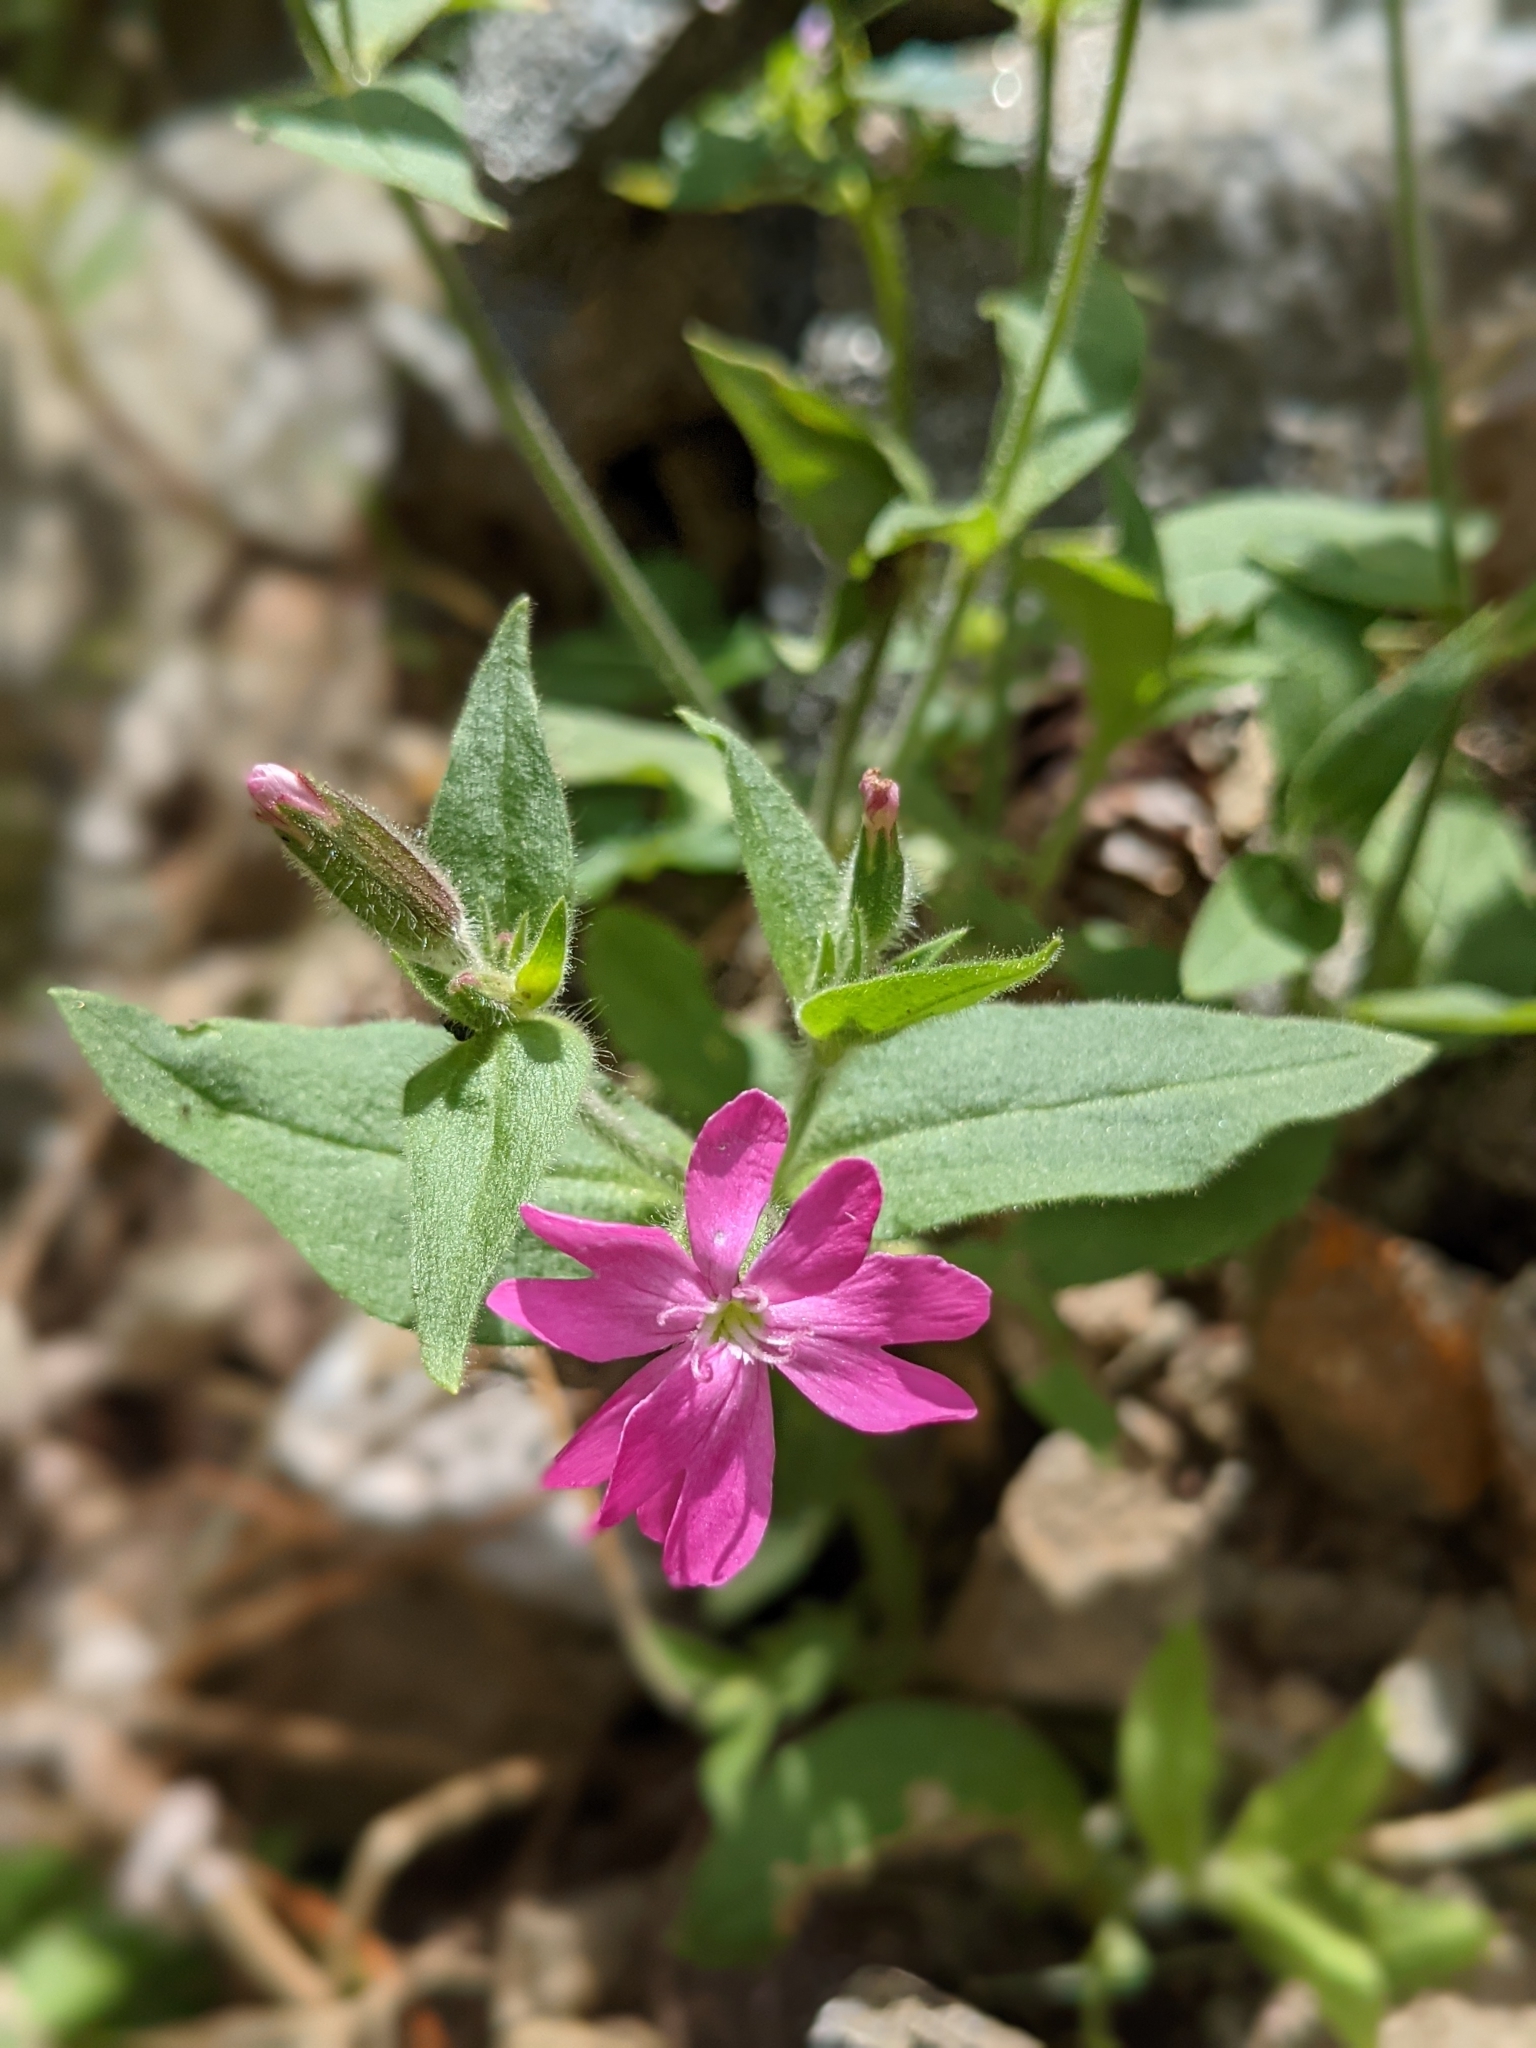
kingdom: Plantae
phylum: Tracheophyta
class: Magnoliopsida
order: Caryophyllales
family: Caryophyllaceae
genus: Silene
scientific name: Silene dioica
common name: Red campion
